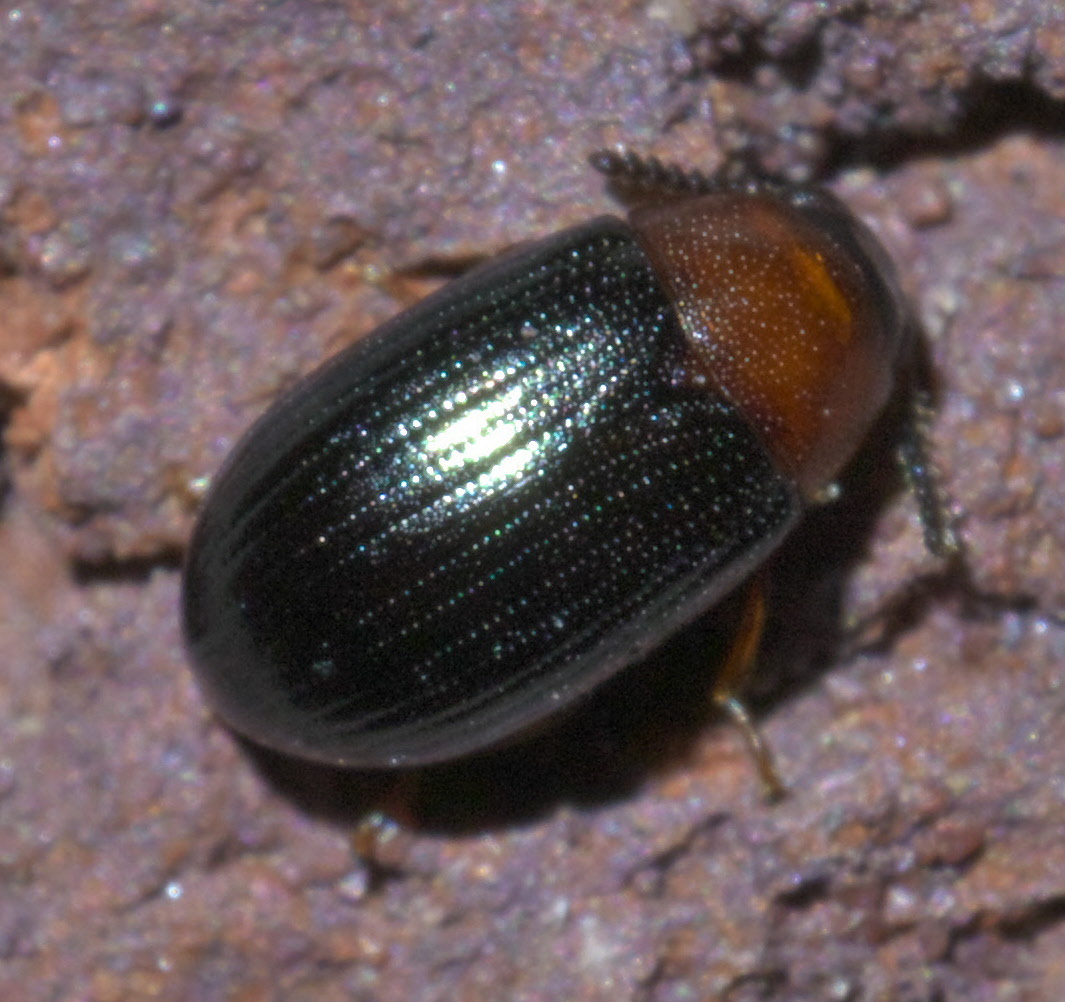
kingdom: Animalia
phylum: Arthropoda
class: Insecta
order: Coleoptera
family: Tenebrionidae
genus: Neomida
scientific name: Neomida bicornis
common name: Two-horned darkling beetle
